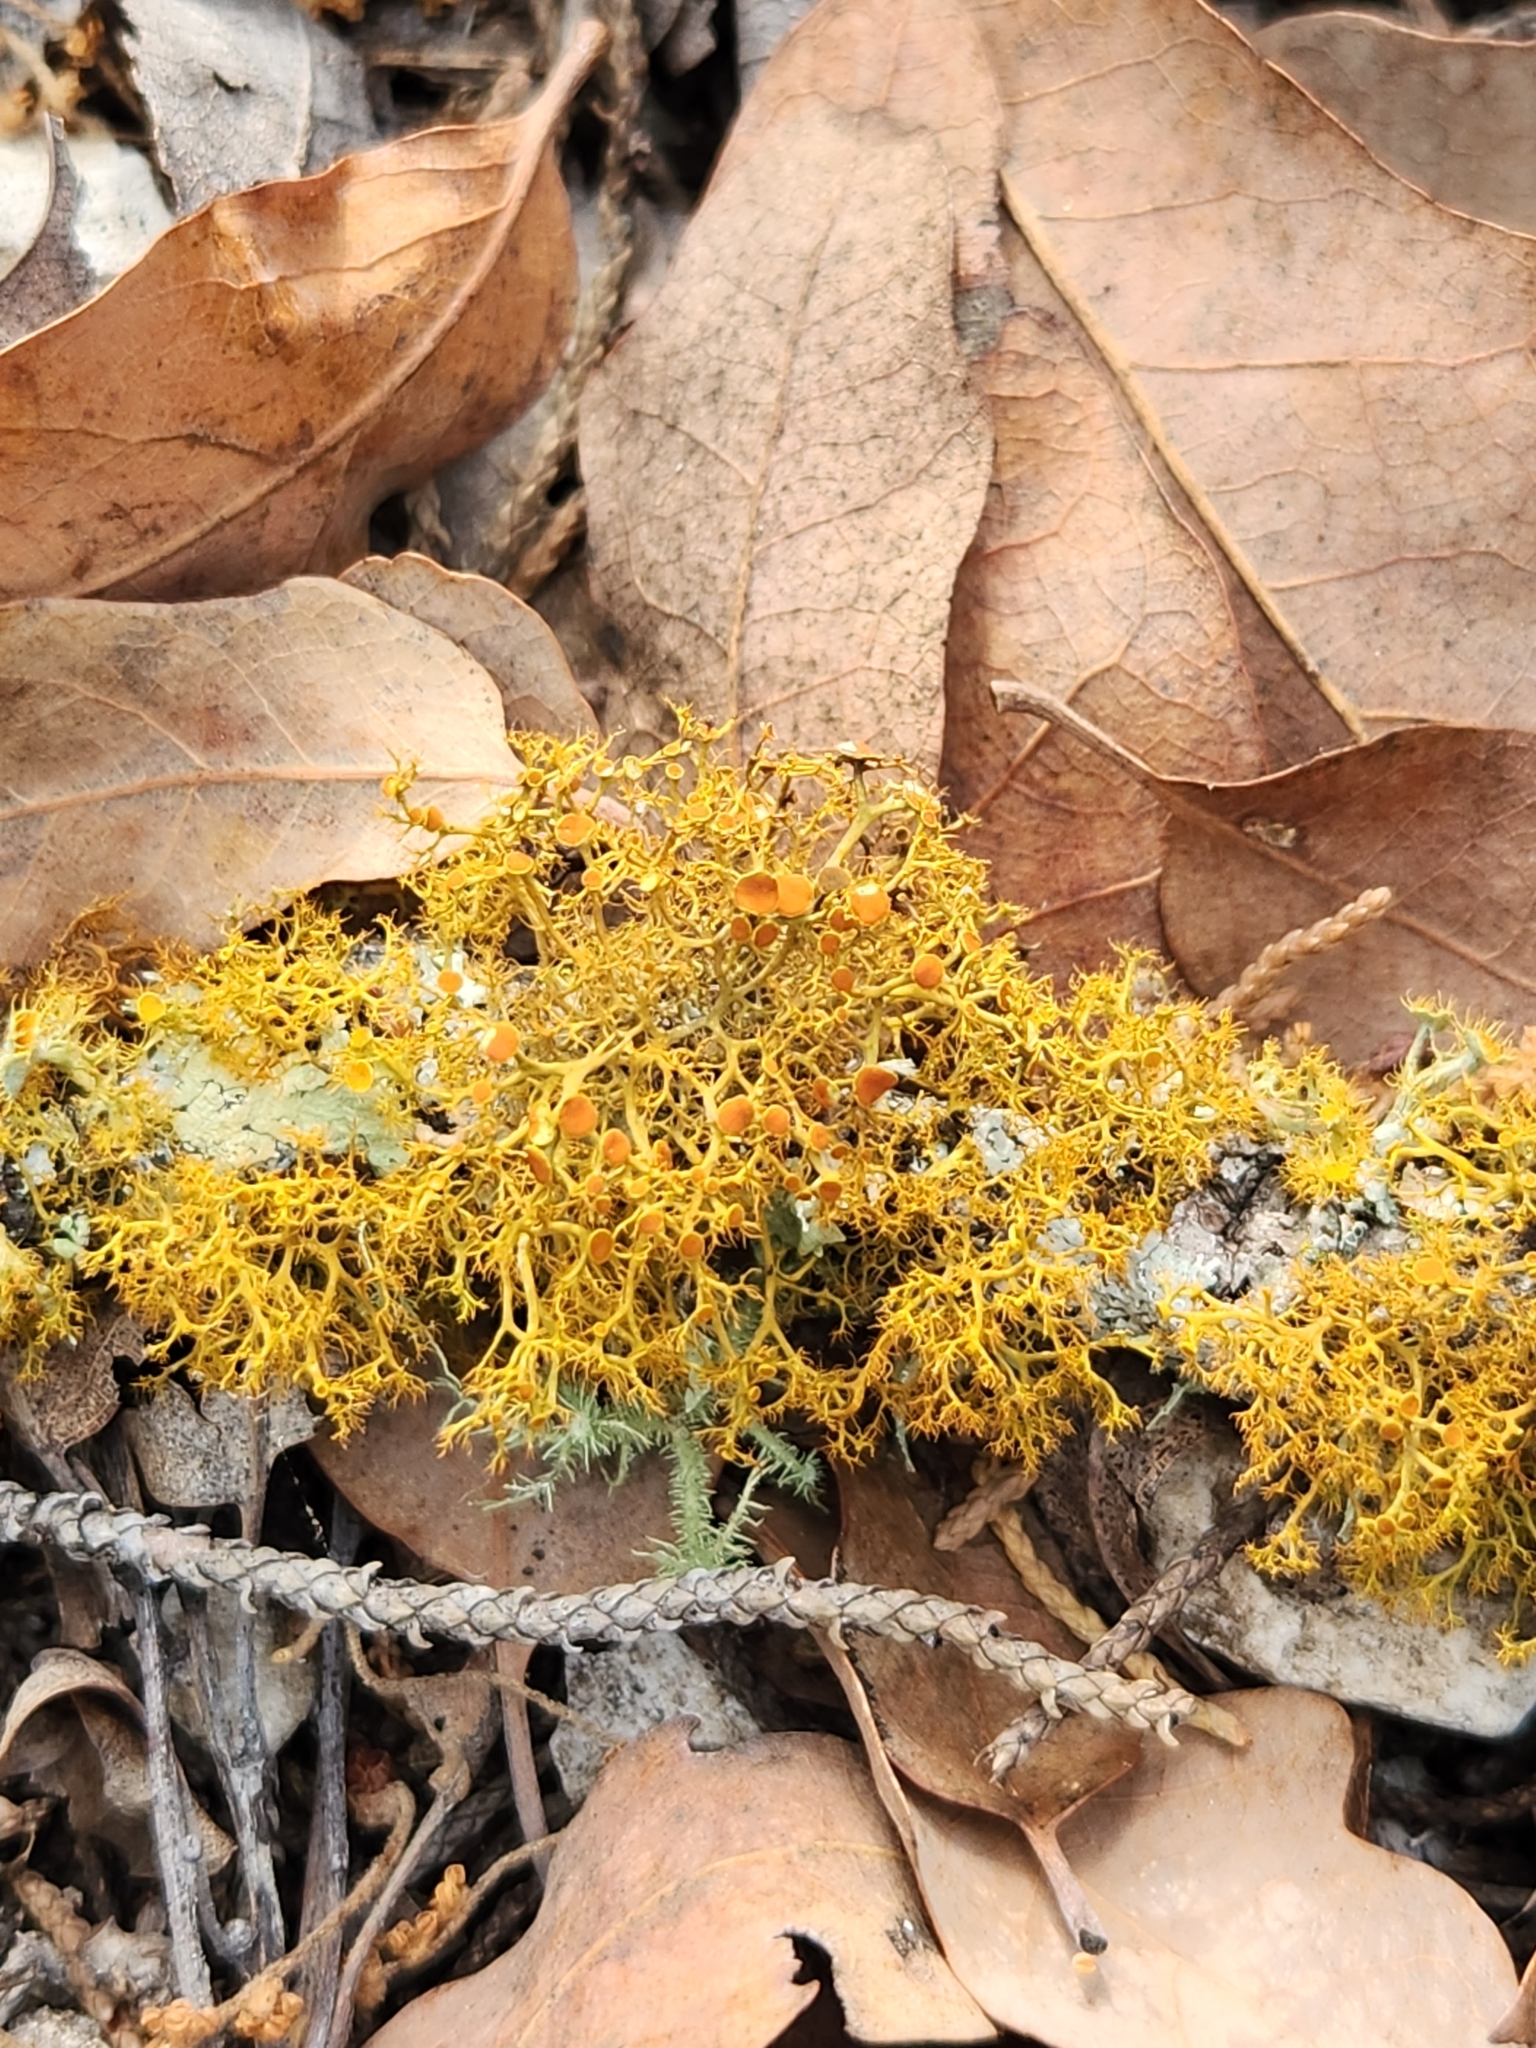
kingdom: Fungi
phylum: Ascomycota
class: Lecanoromycetes
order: Teloschistales
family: Teloschistaceae
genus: Teloschistes
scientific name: Teloschistes exilis
